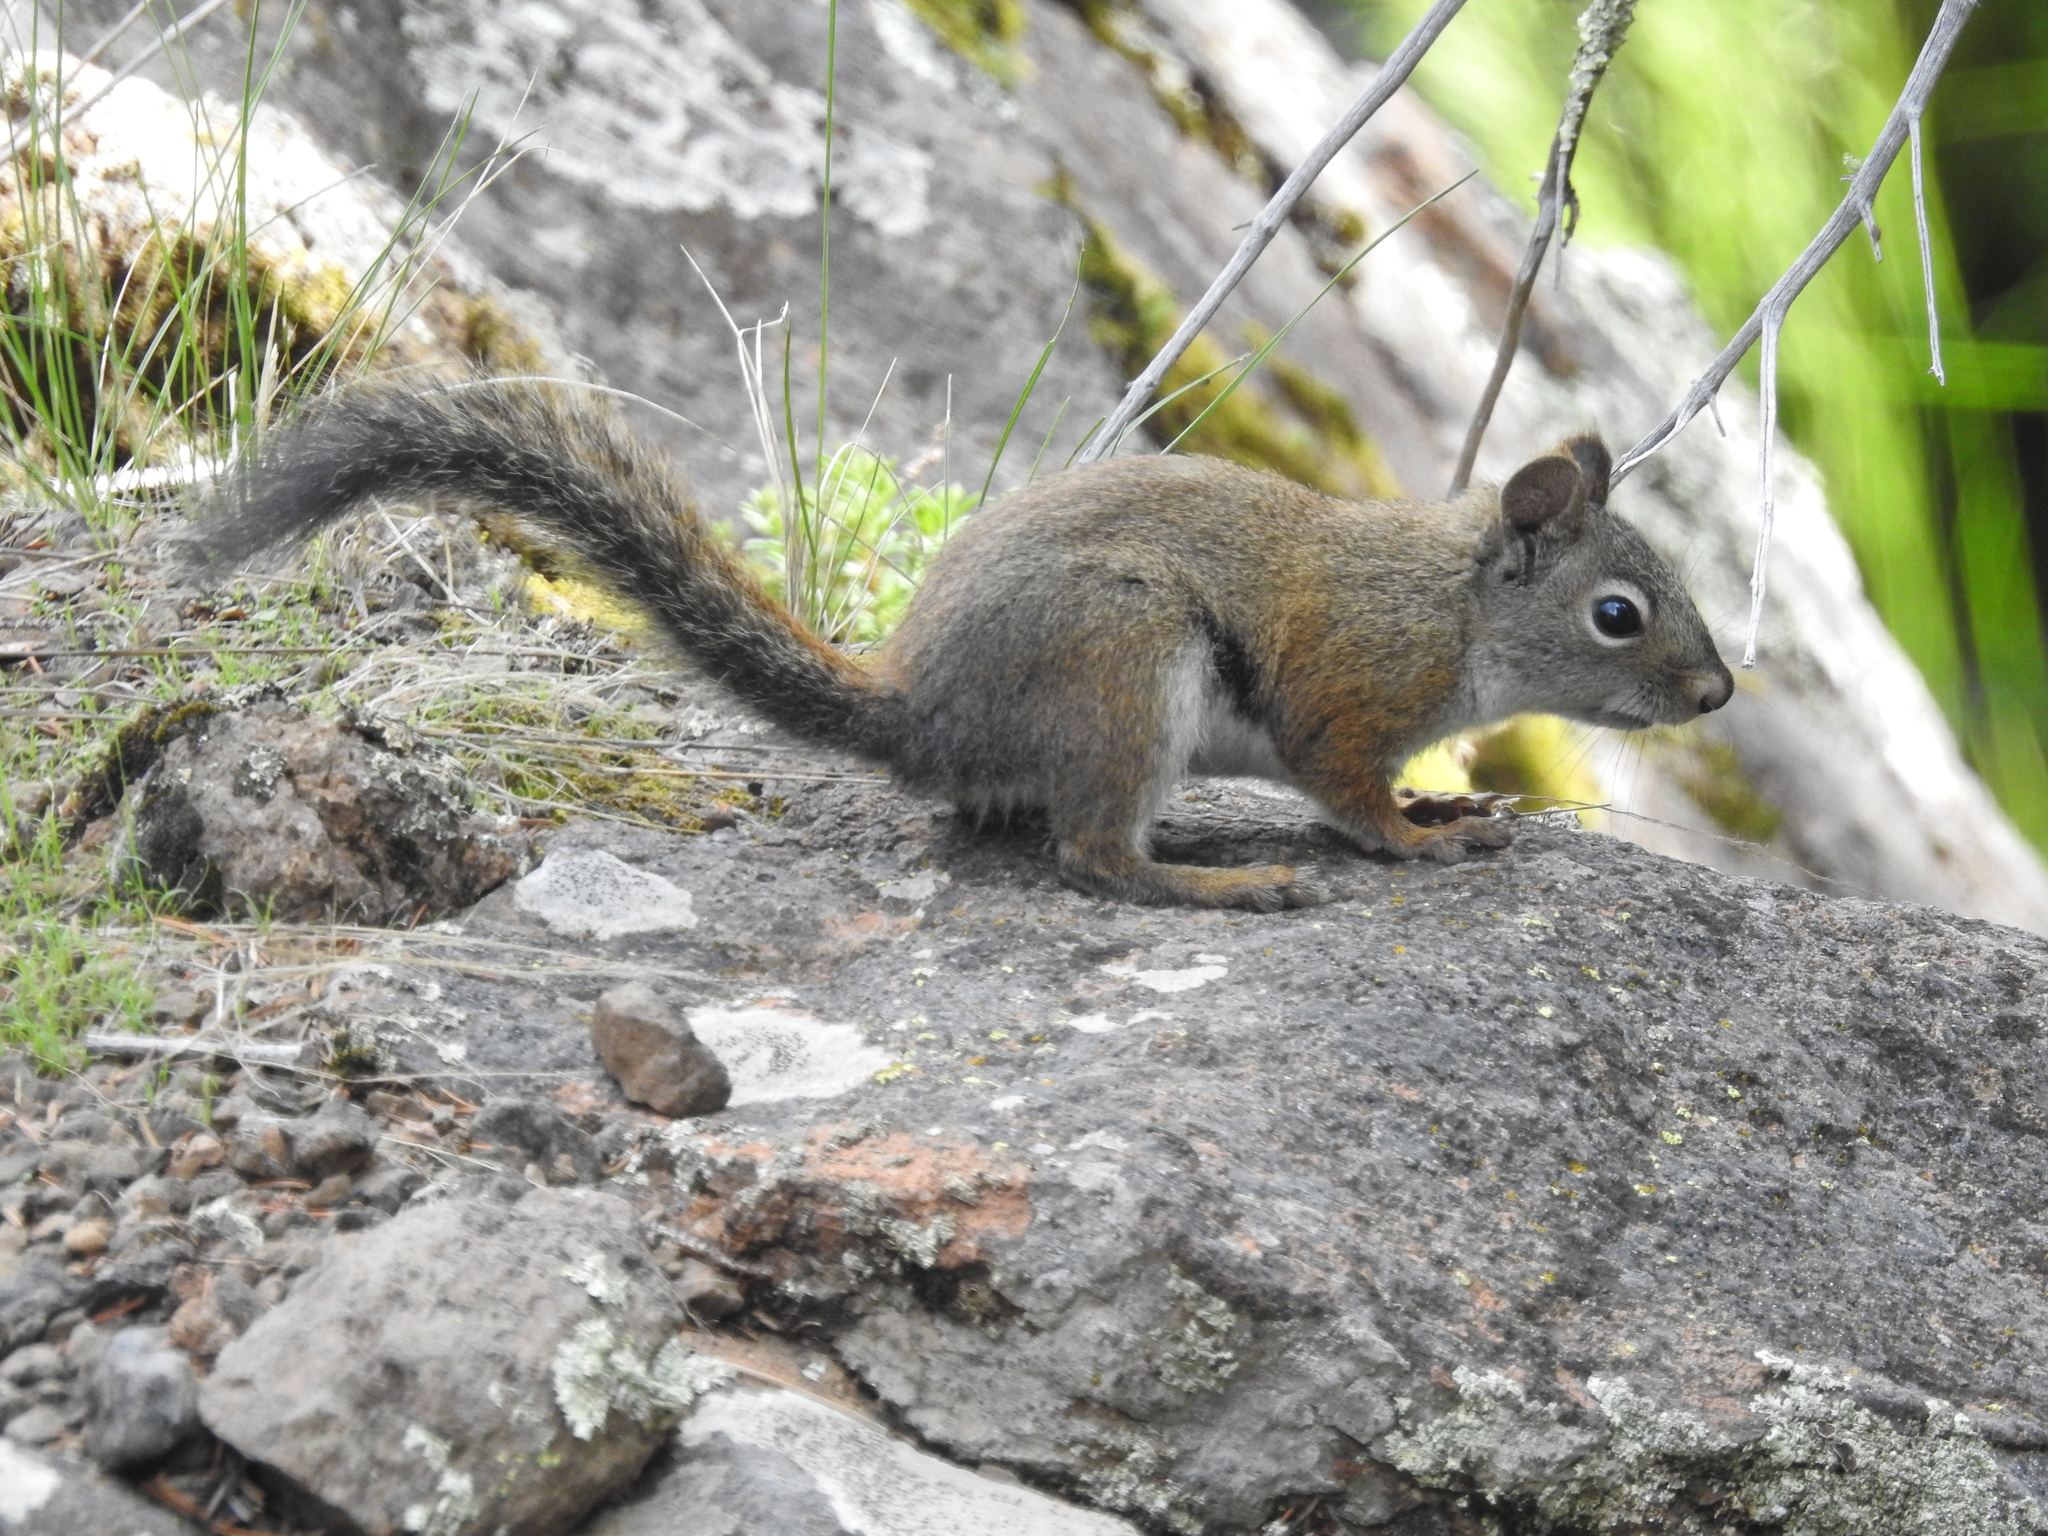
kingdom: Animalia
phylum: Chordata
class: Mammalia
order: Rodentia
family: Sciuridae
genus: Tamiasciurus
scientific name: Tamiasciurus hudsonicus
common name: Red squirrel
